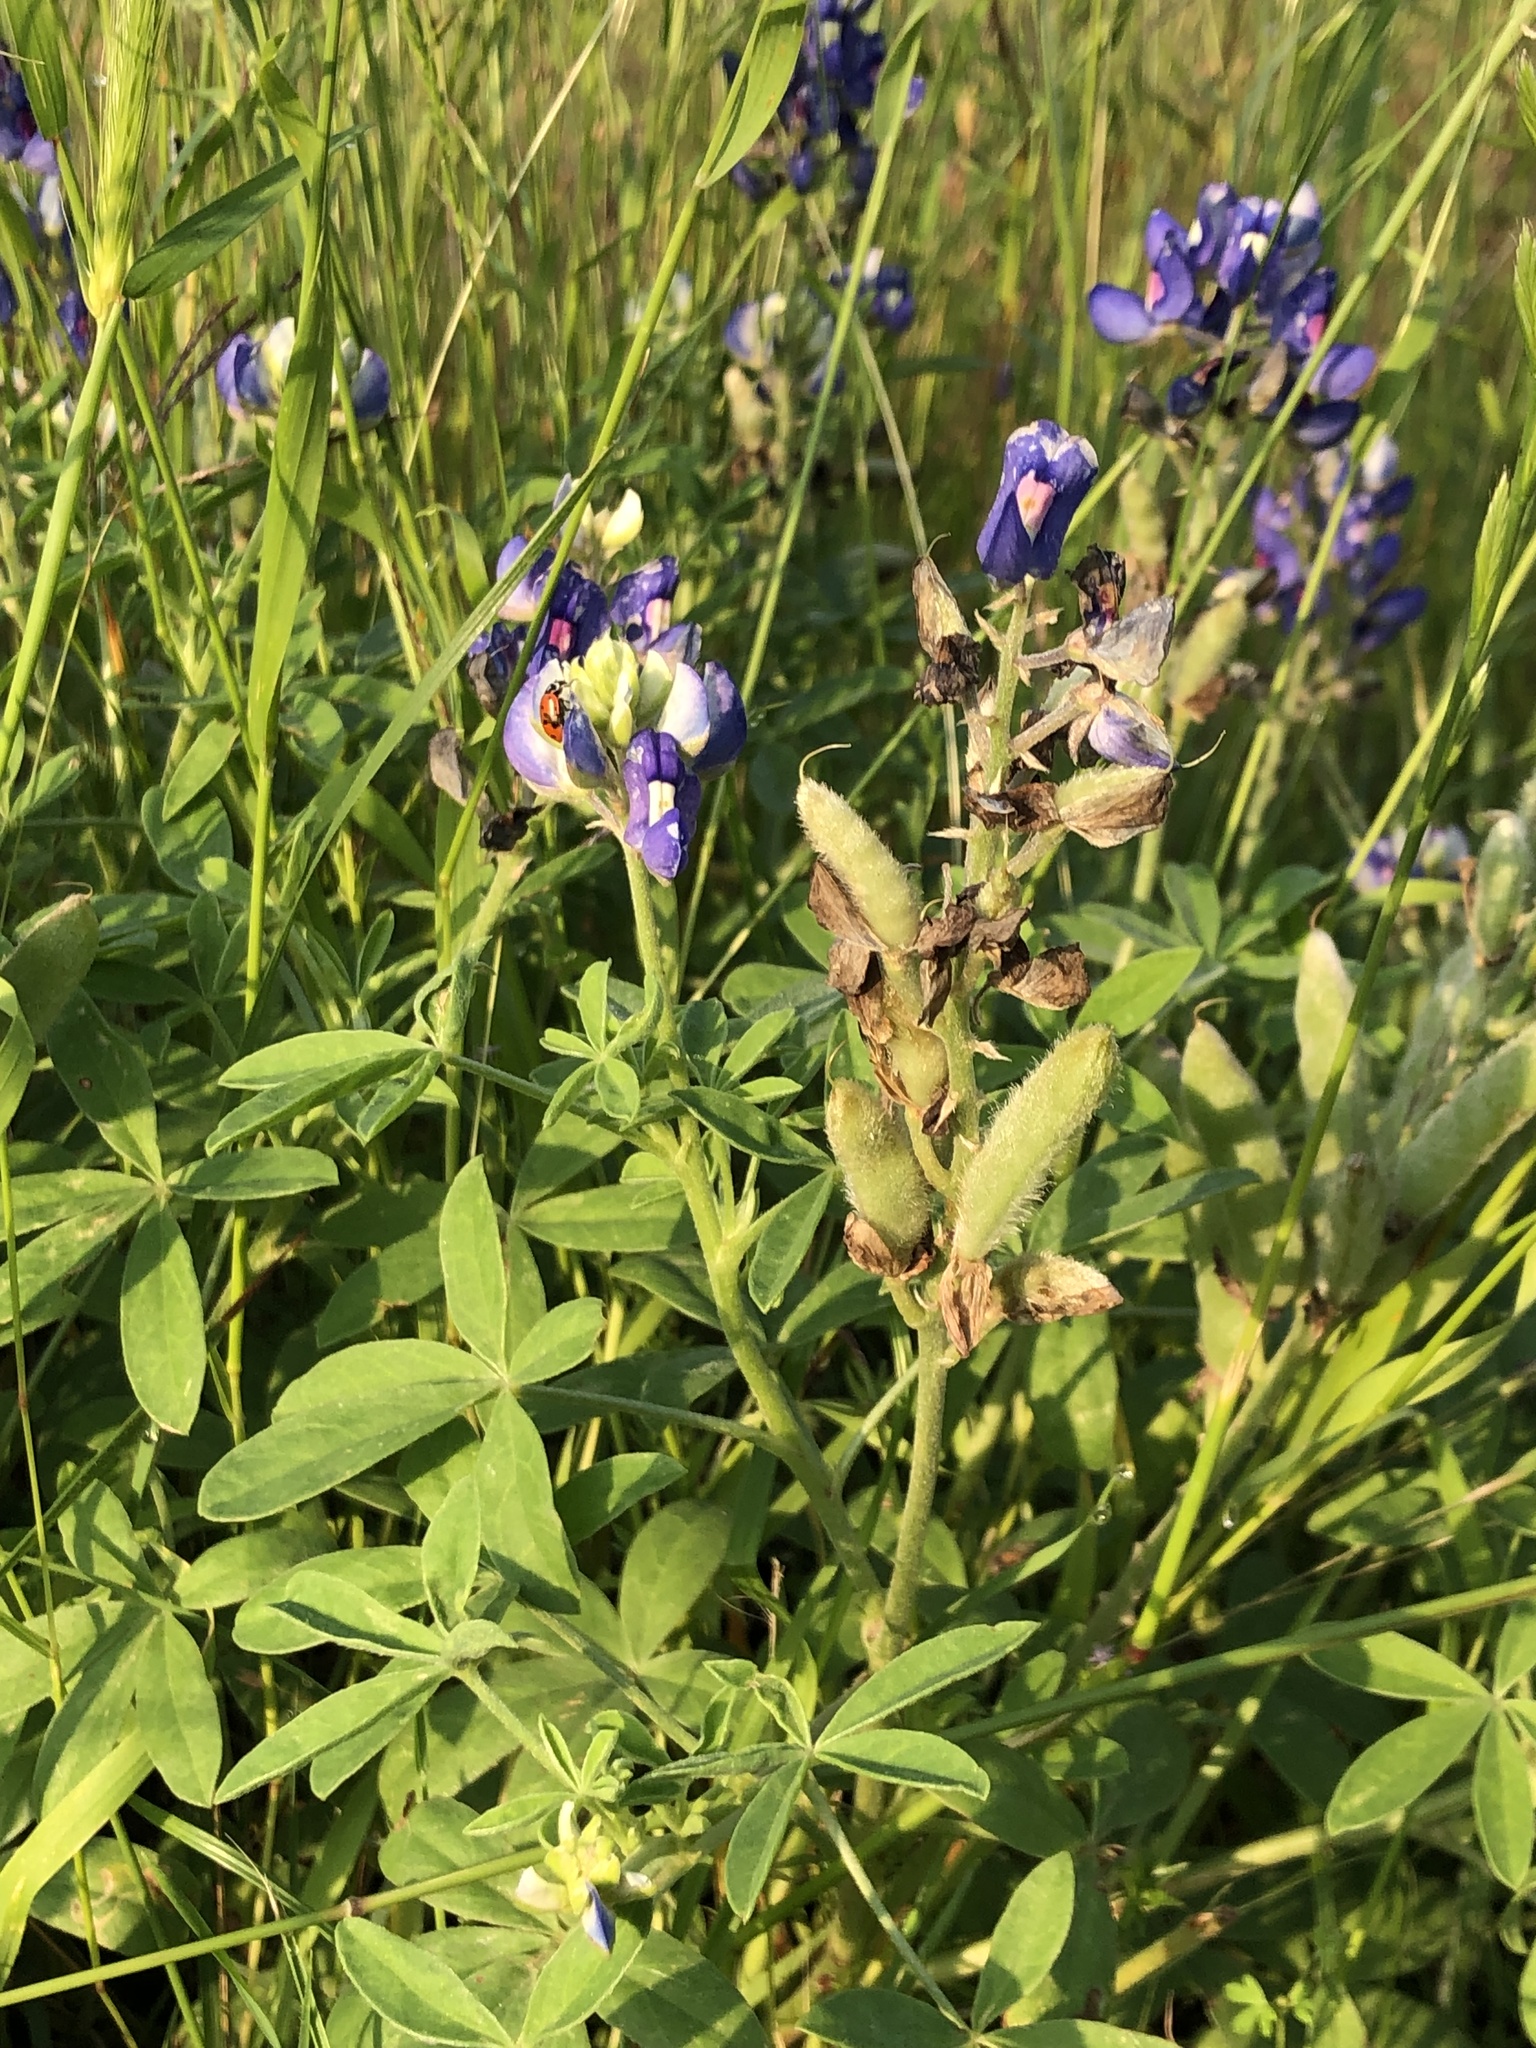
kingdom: Plantae
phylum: Tracheophyta
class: Magnoliopsida
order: Fabales
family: Fabaceae
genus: Lupinus
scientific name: Lupinus texensis
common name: Texas bluebonnet
